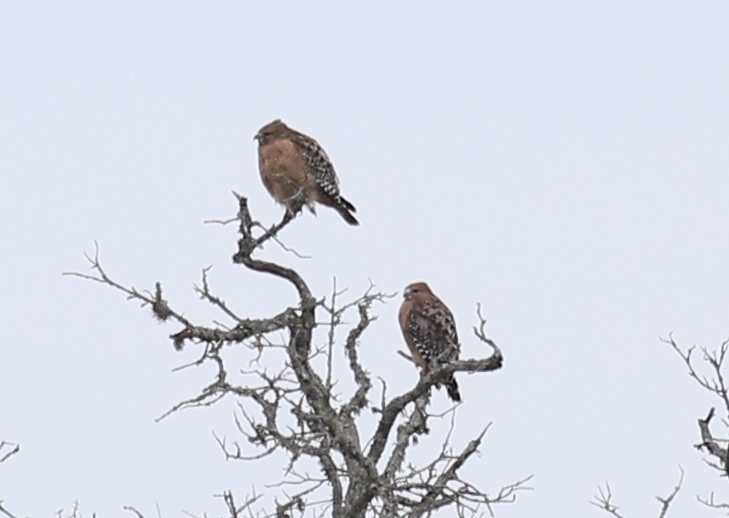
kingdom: Animalia
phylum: Chordata
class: Aves
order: Accipitriformes
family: Accipitridae
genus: Buteo
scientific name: Buteo lineatus
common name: Red-shouldered hawk
